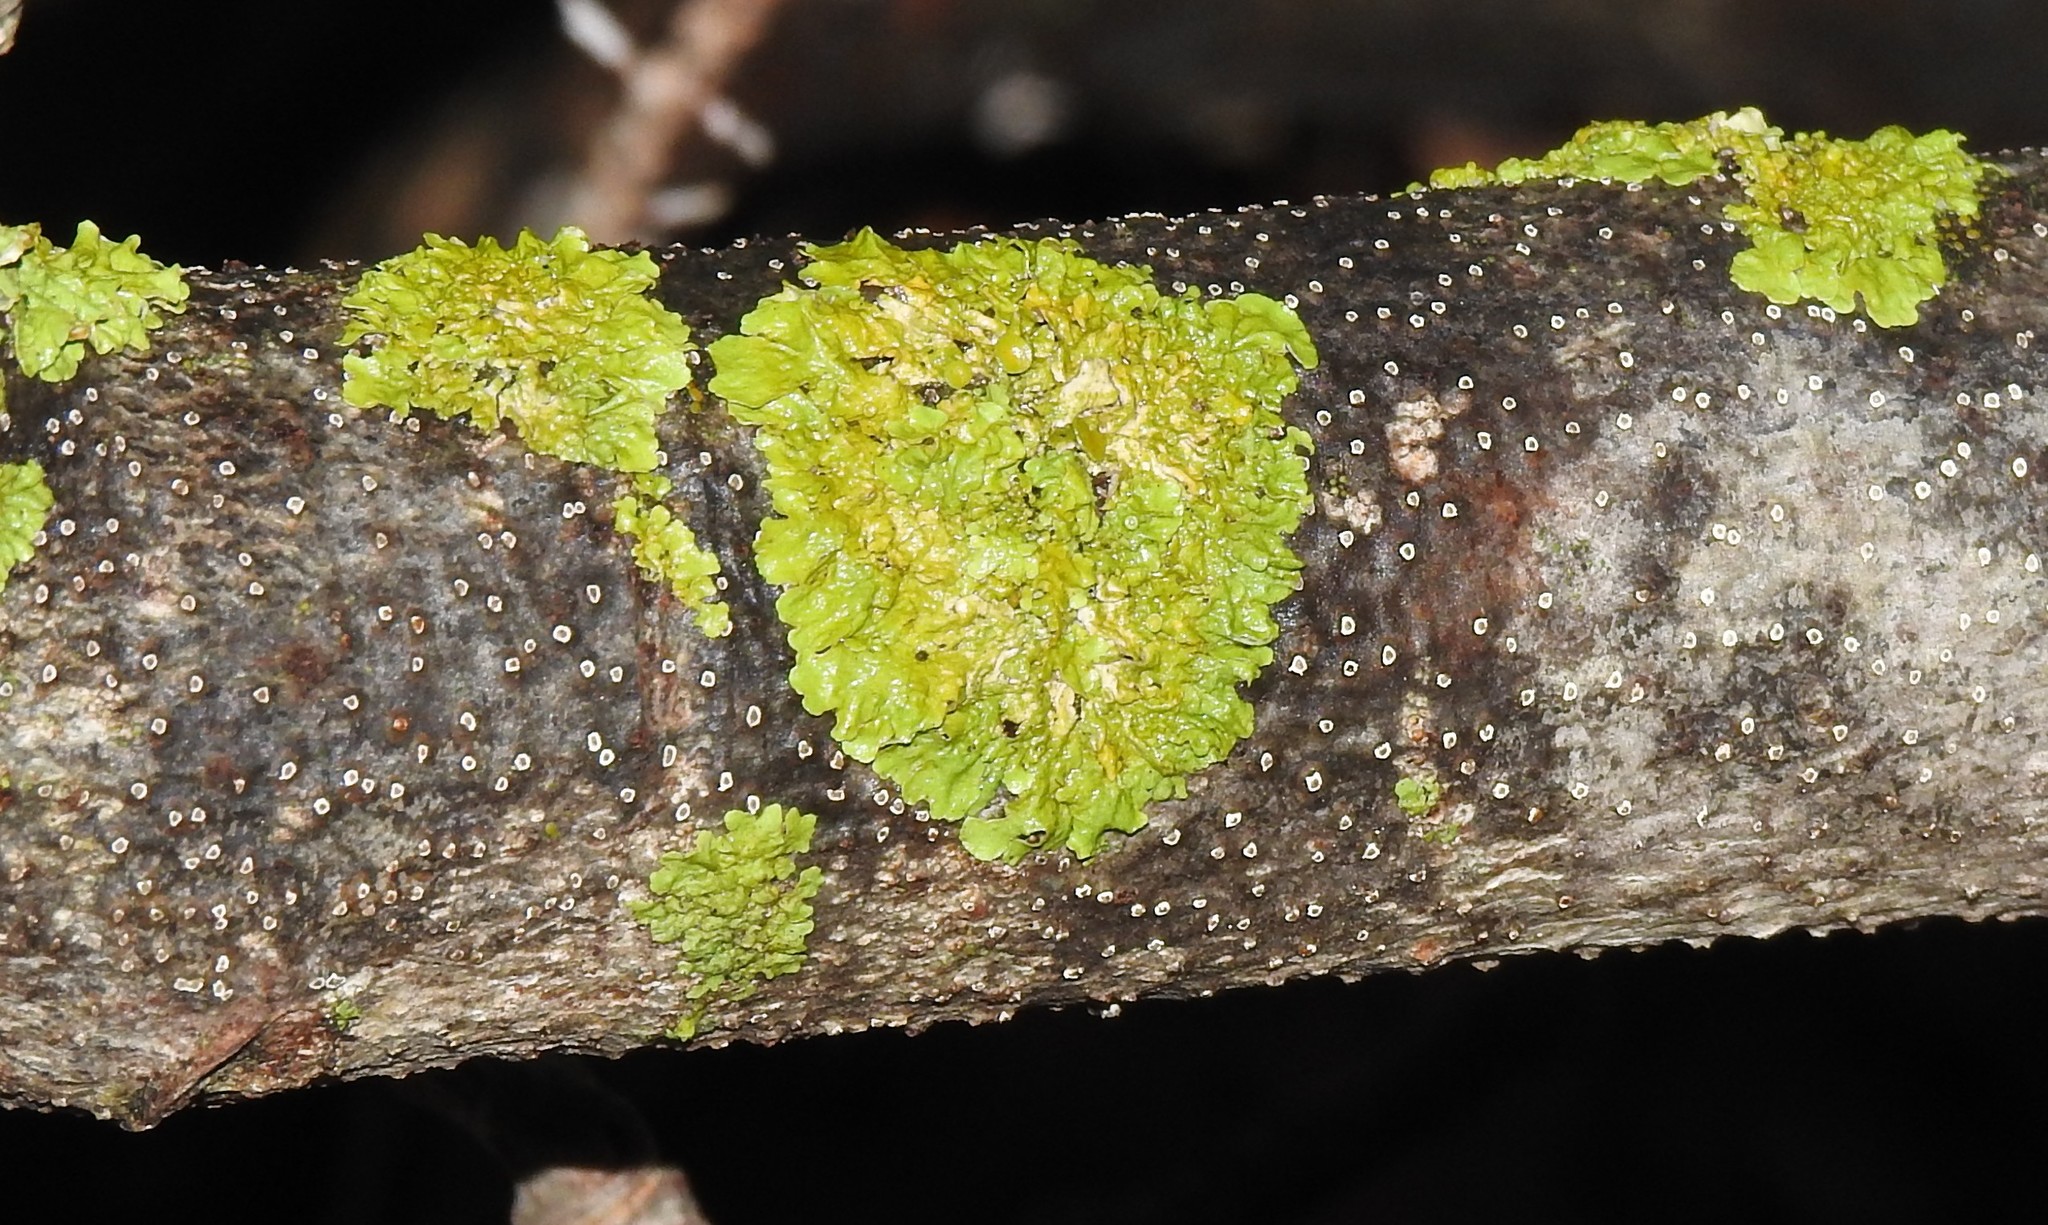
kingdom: Fungi
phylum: Ascomycota
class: Lecanoromycetes
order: Teloschistales
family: Teloschistaceae
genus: Xanthoria
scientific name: Xanthoria parietina
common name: Common orange lichen
